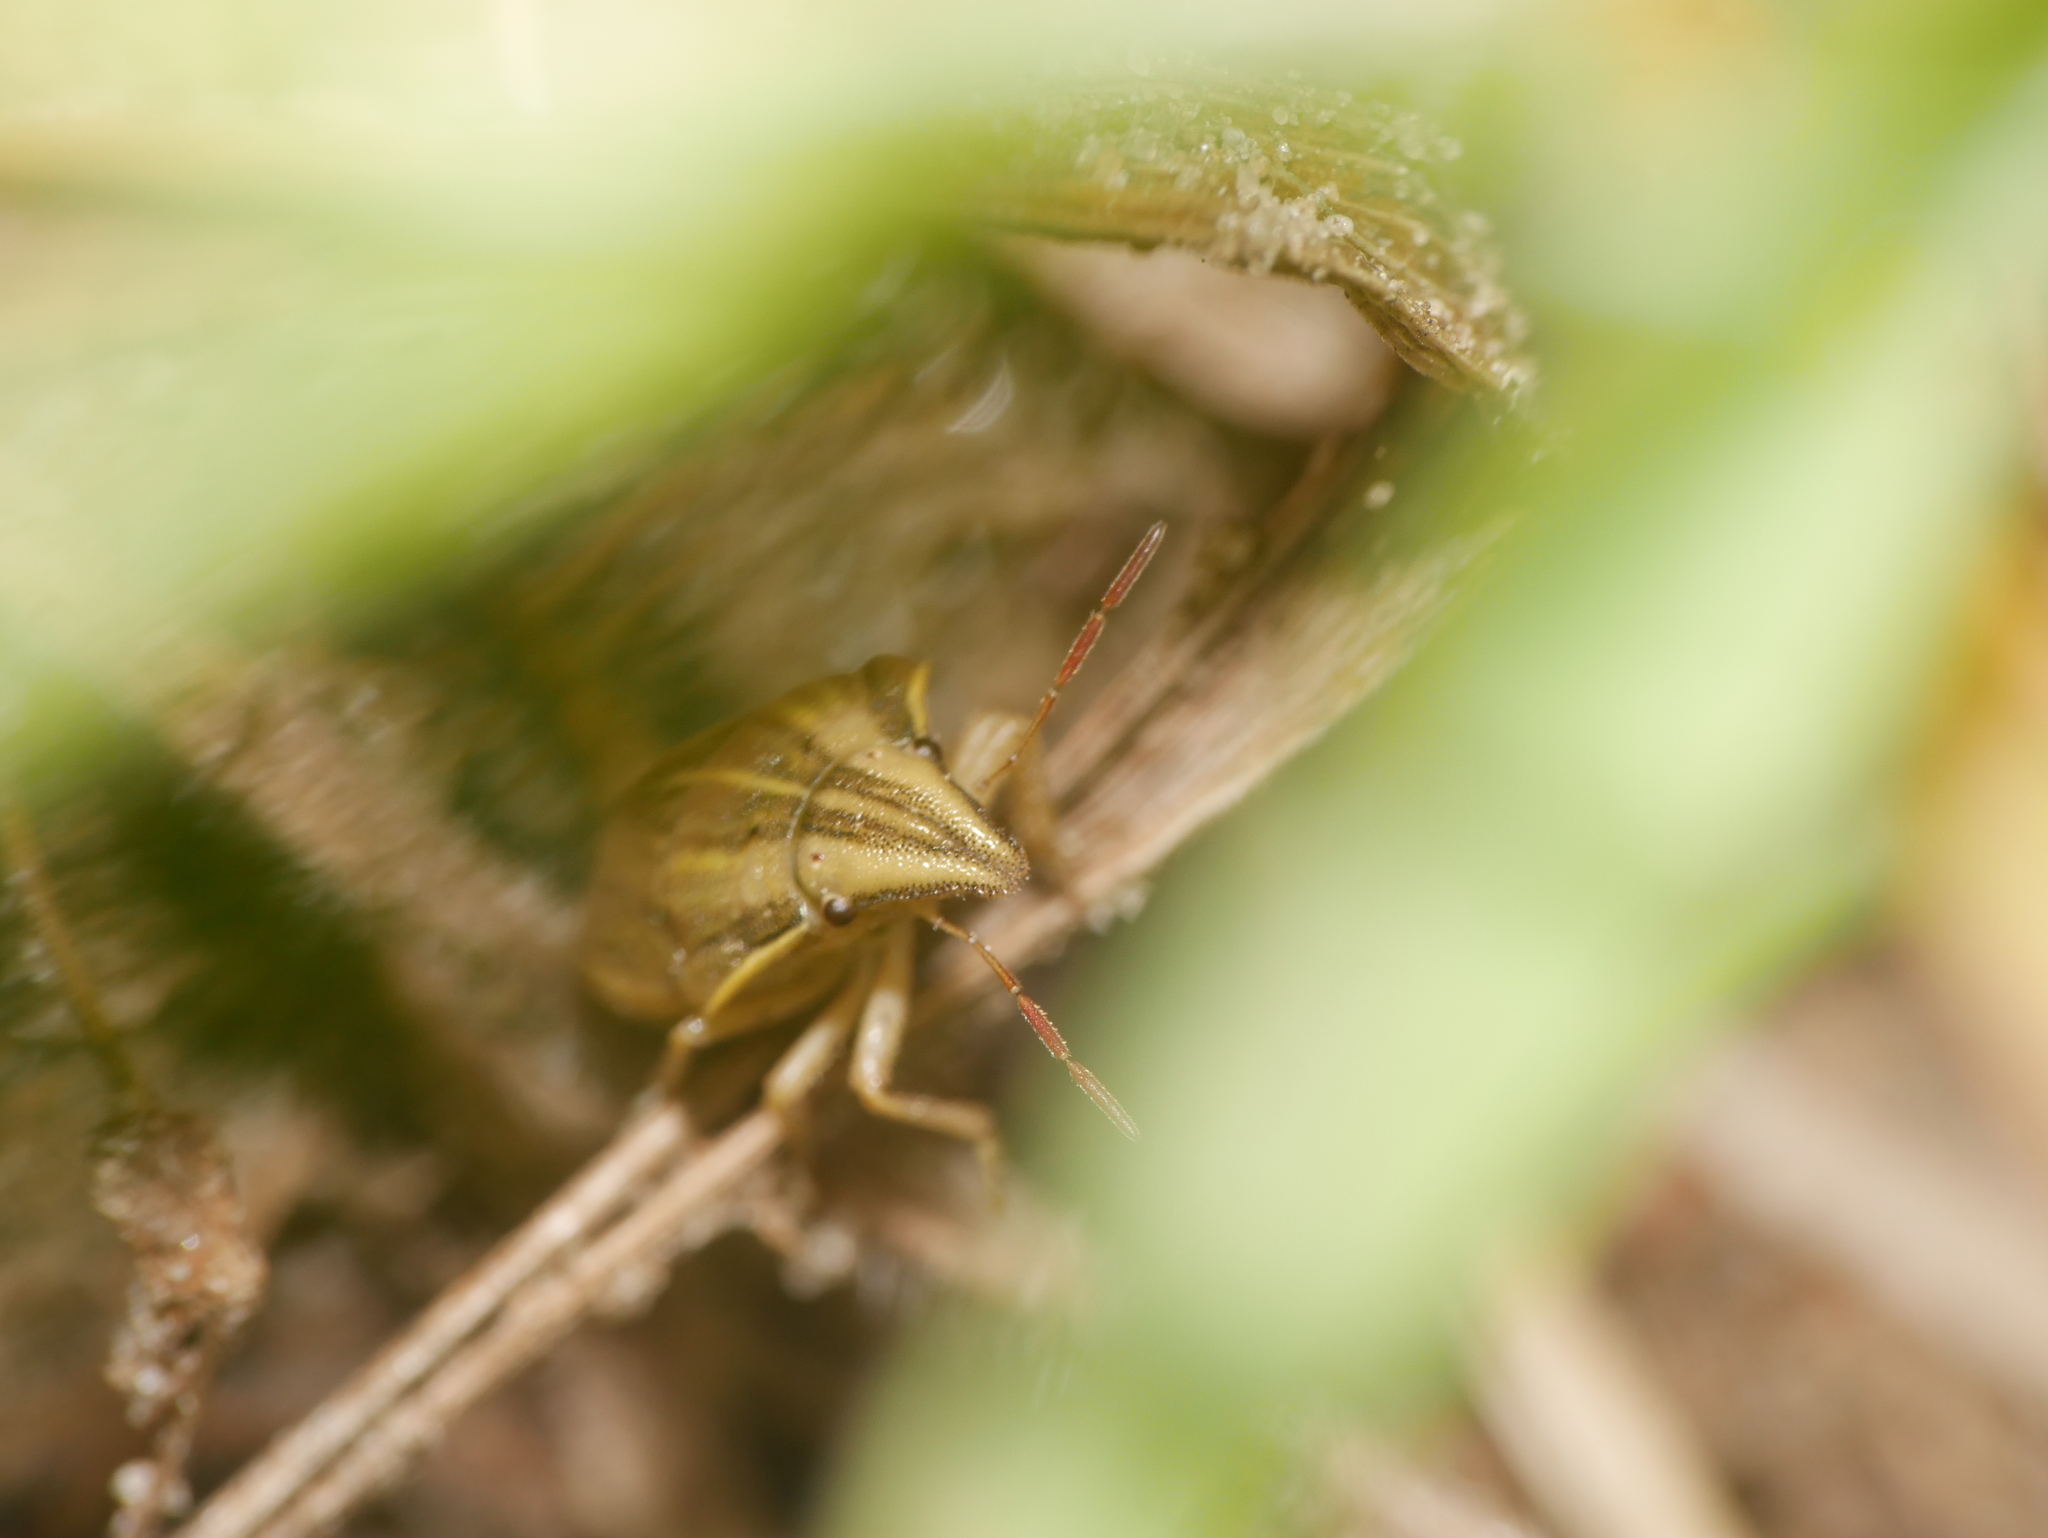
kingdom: Animalia
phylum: Arthropoda
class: Insecta
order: Hemiptera
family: Pentatomidae
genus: Aelia
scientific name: Aelia acuminata
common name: Bishop's mitre
